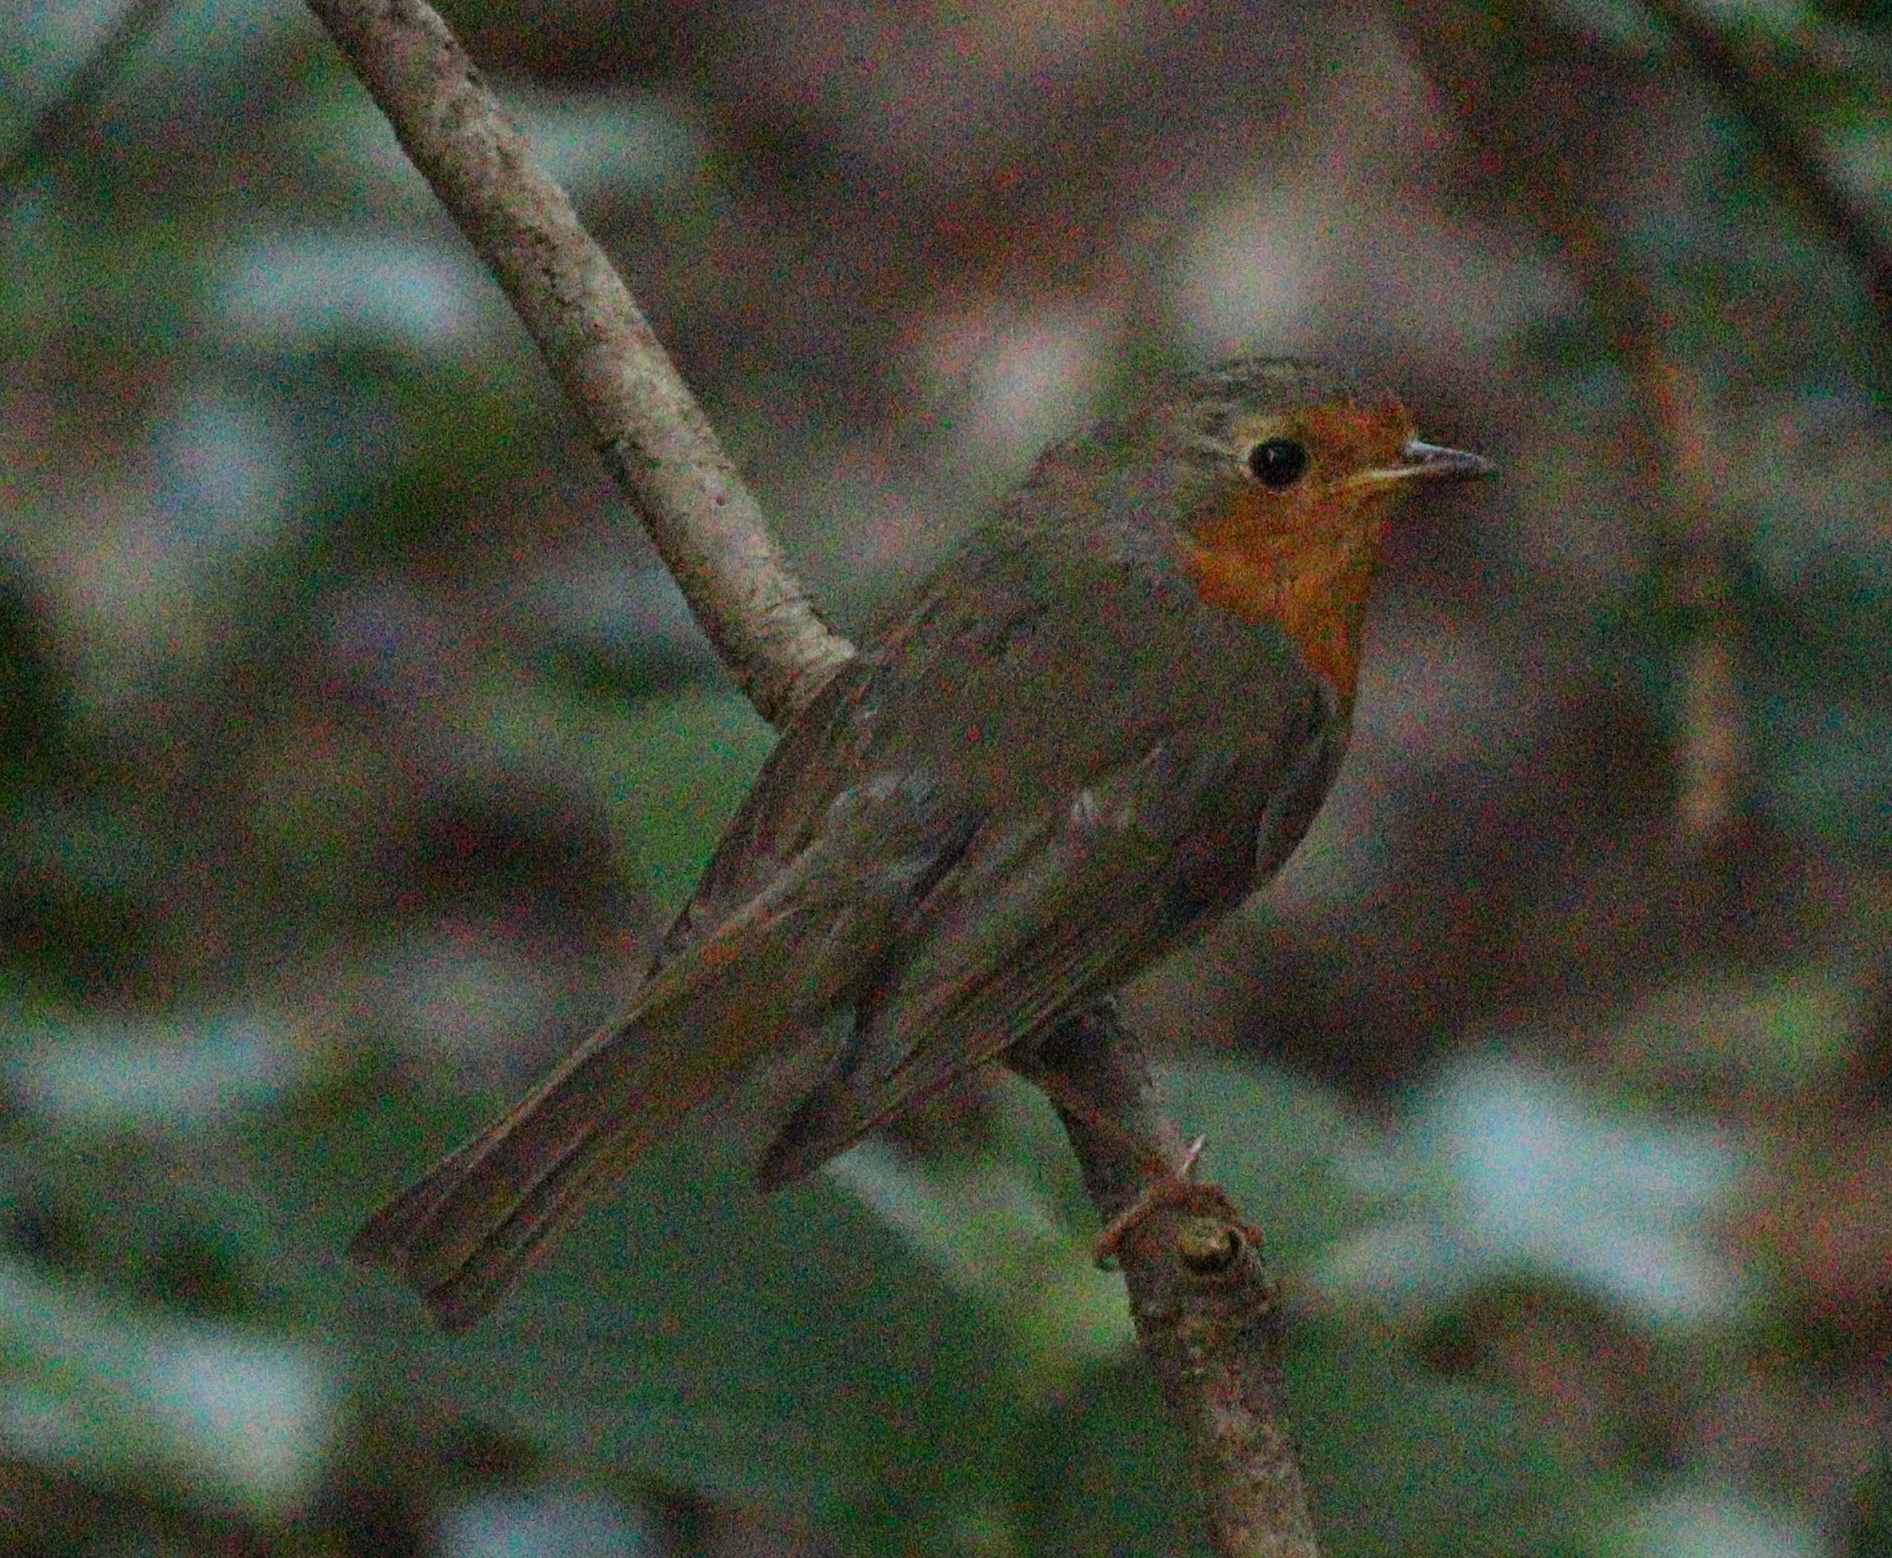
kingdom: Animalia
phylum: Chordata
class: Aves
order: Passeriformes
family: Muscicapidae
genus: Erithacus
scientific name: Erithacus rubecula
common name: European robin
